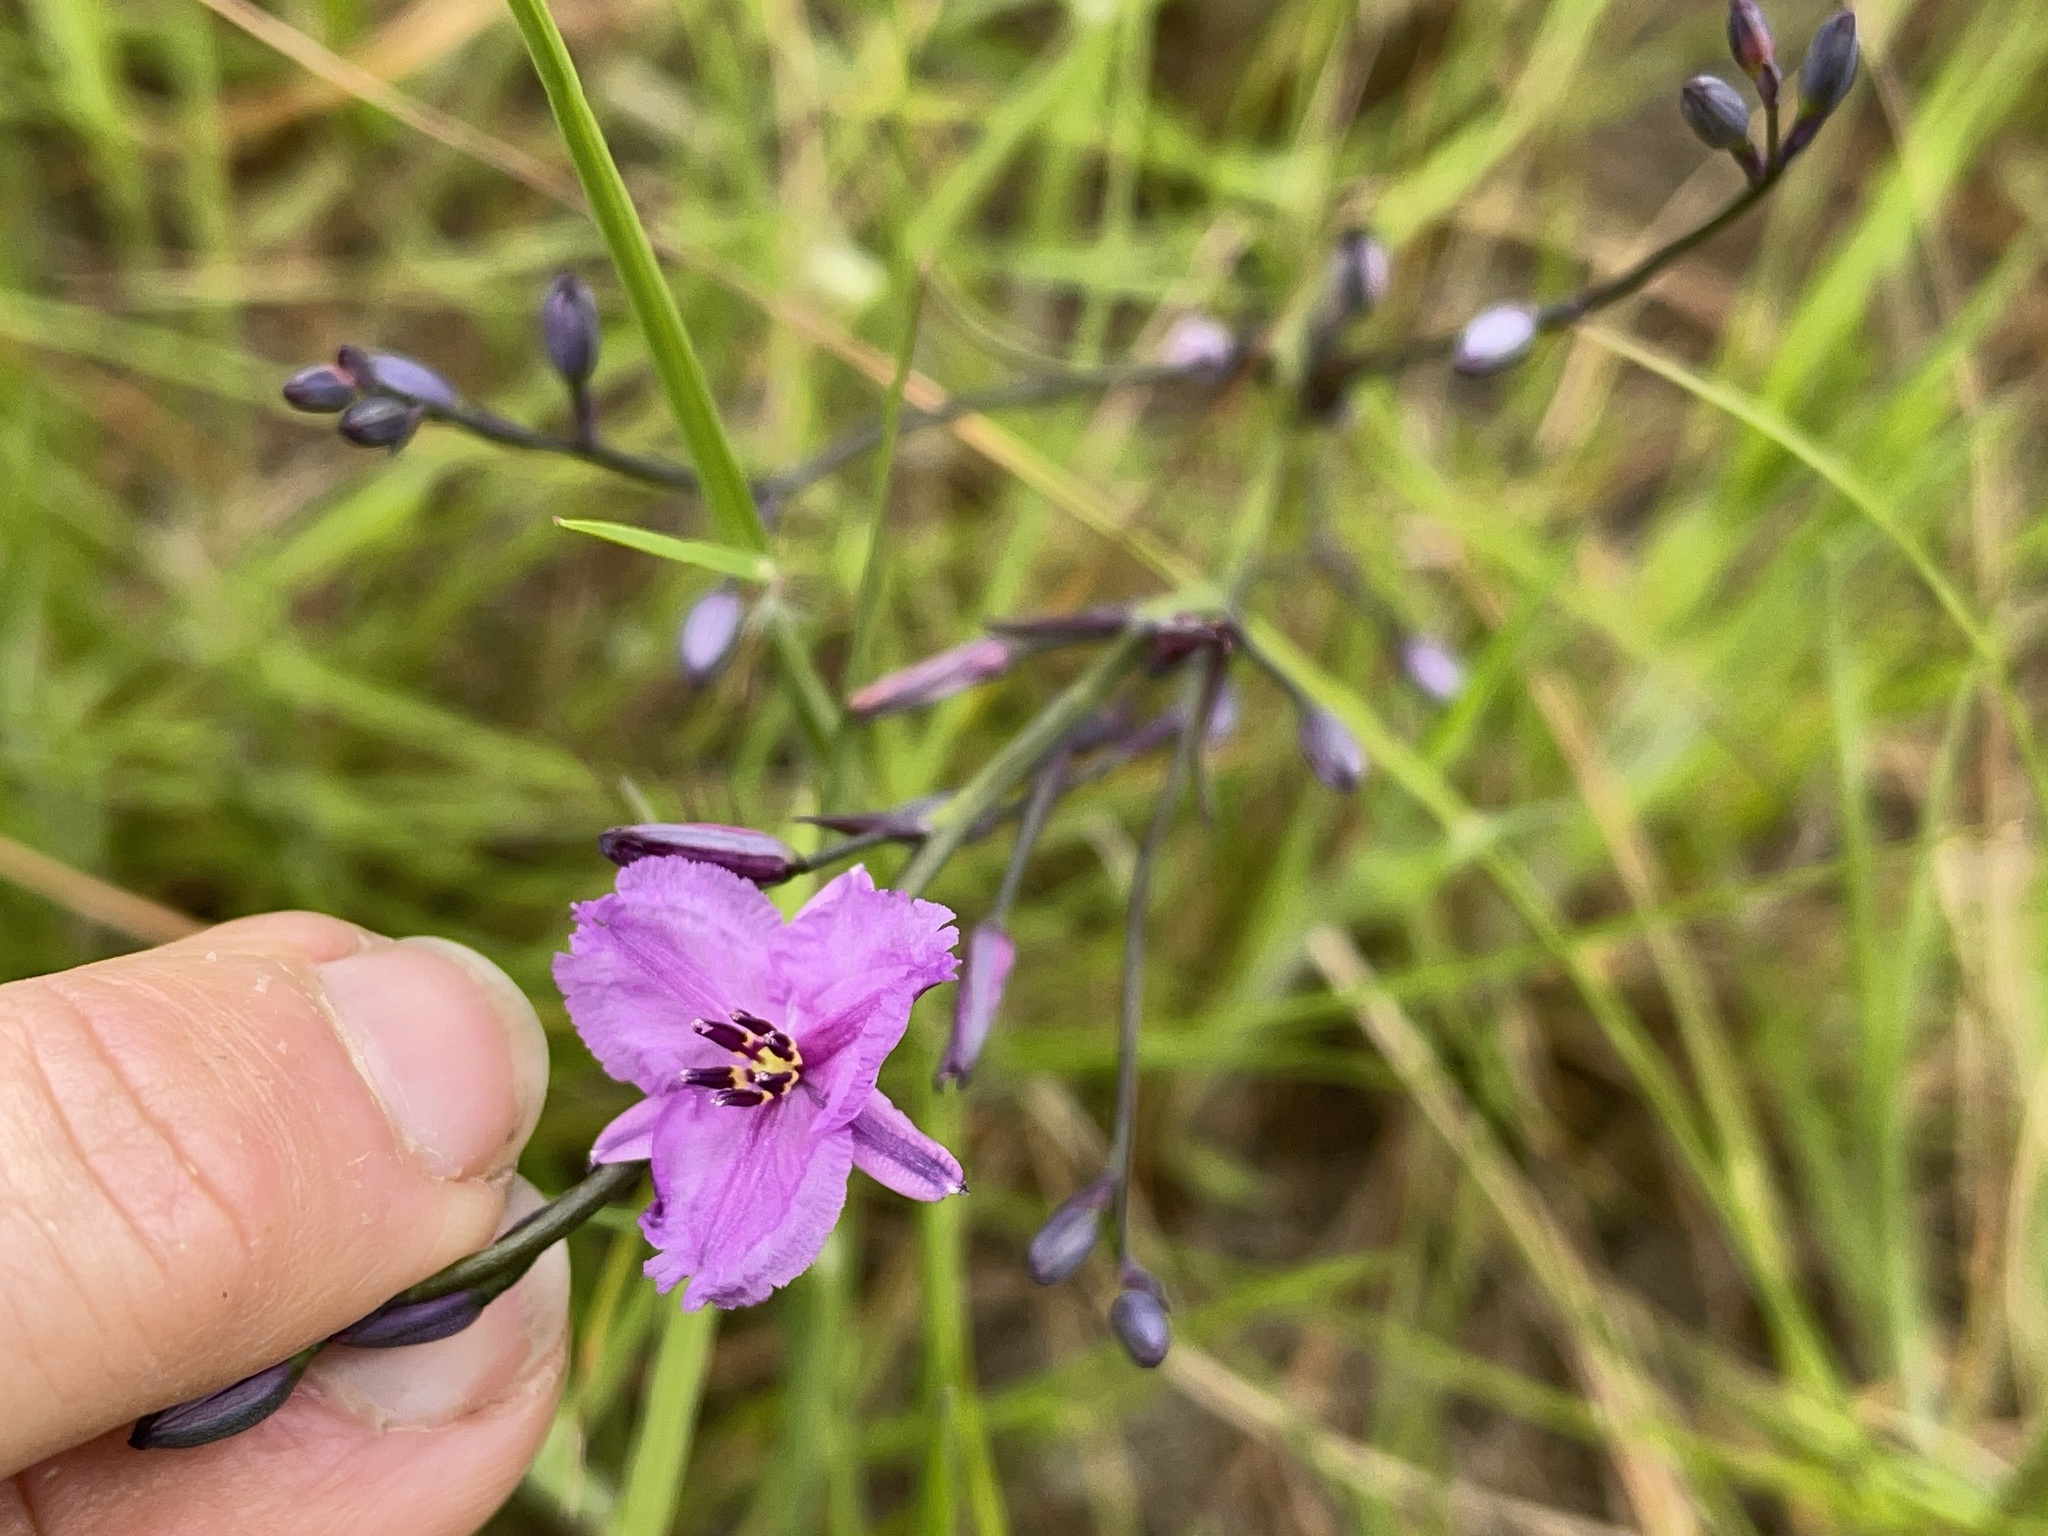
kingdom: Plantae
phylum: Tracheophyta
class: Liliopsida
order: Asparagales
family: Asparagaceae
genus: Arthropodium
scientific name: Arthropodium strictum
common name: Chocolate-lily
